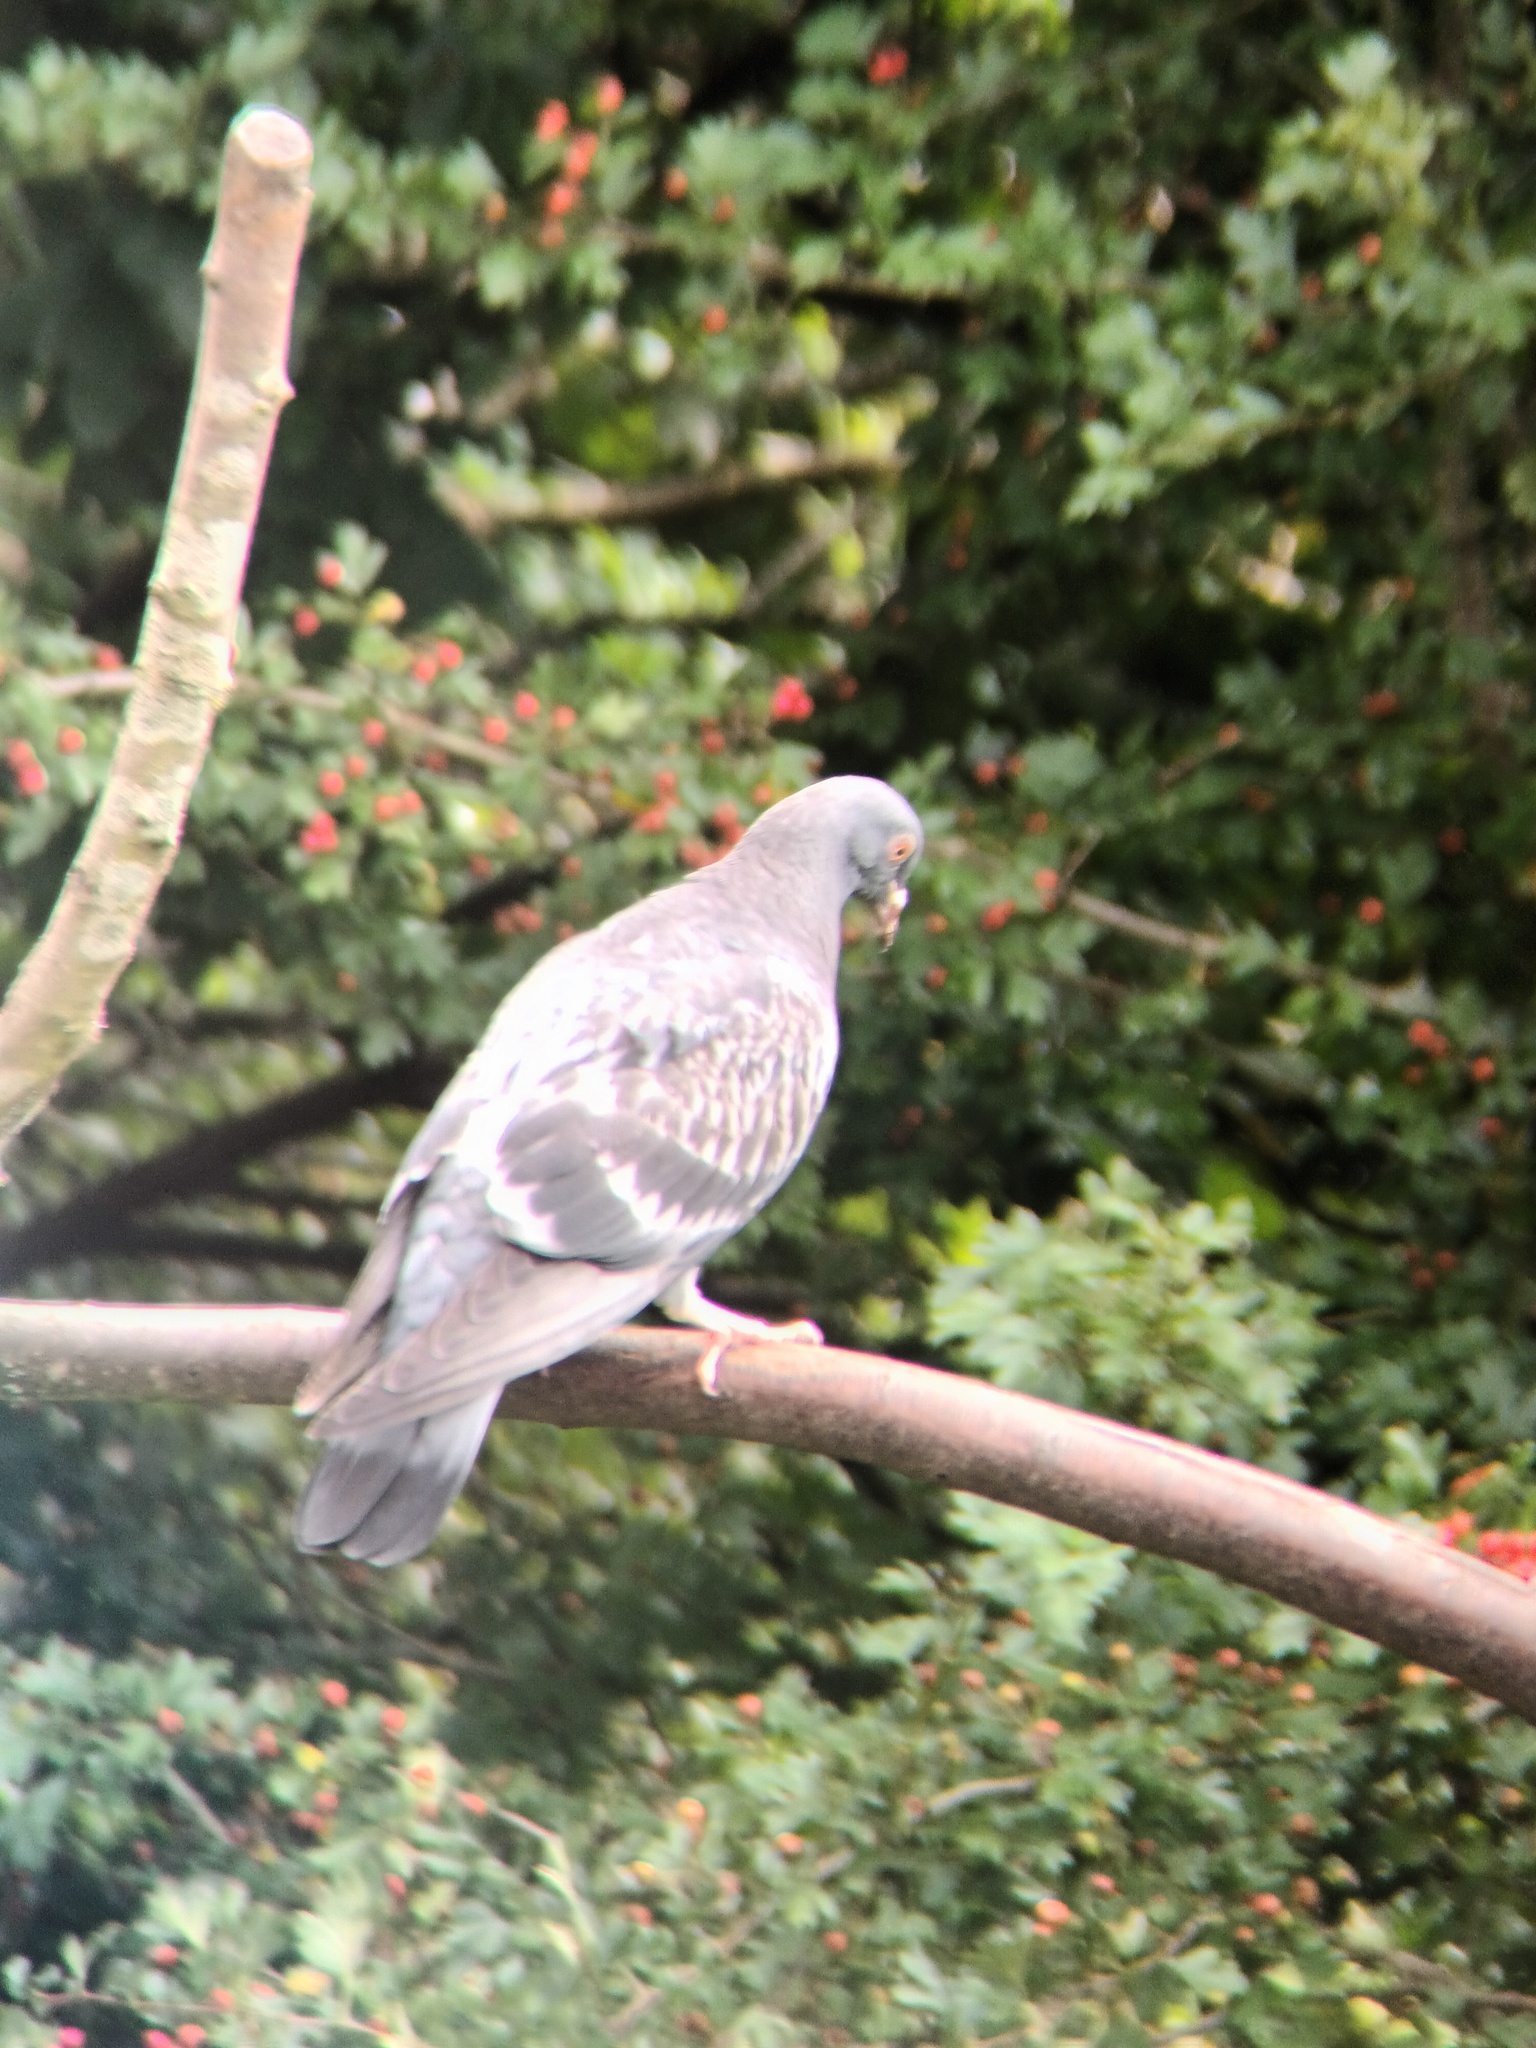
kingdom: Animalia
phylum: Chordata
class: Aves
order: Columbiformes
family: Columbidae
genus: Columba
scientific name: Columba livia
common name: Rock pigeon
